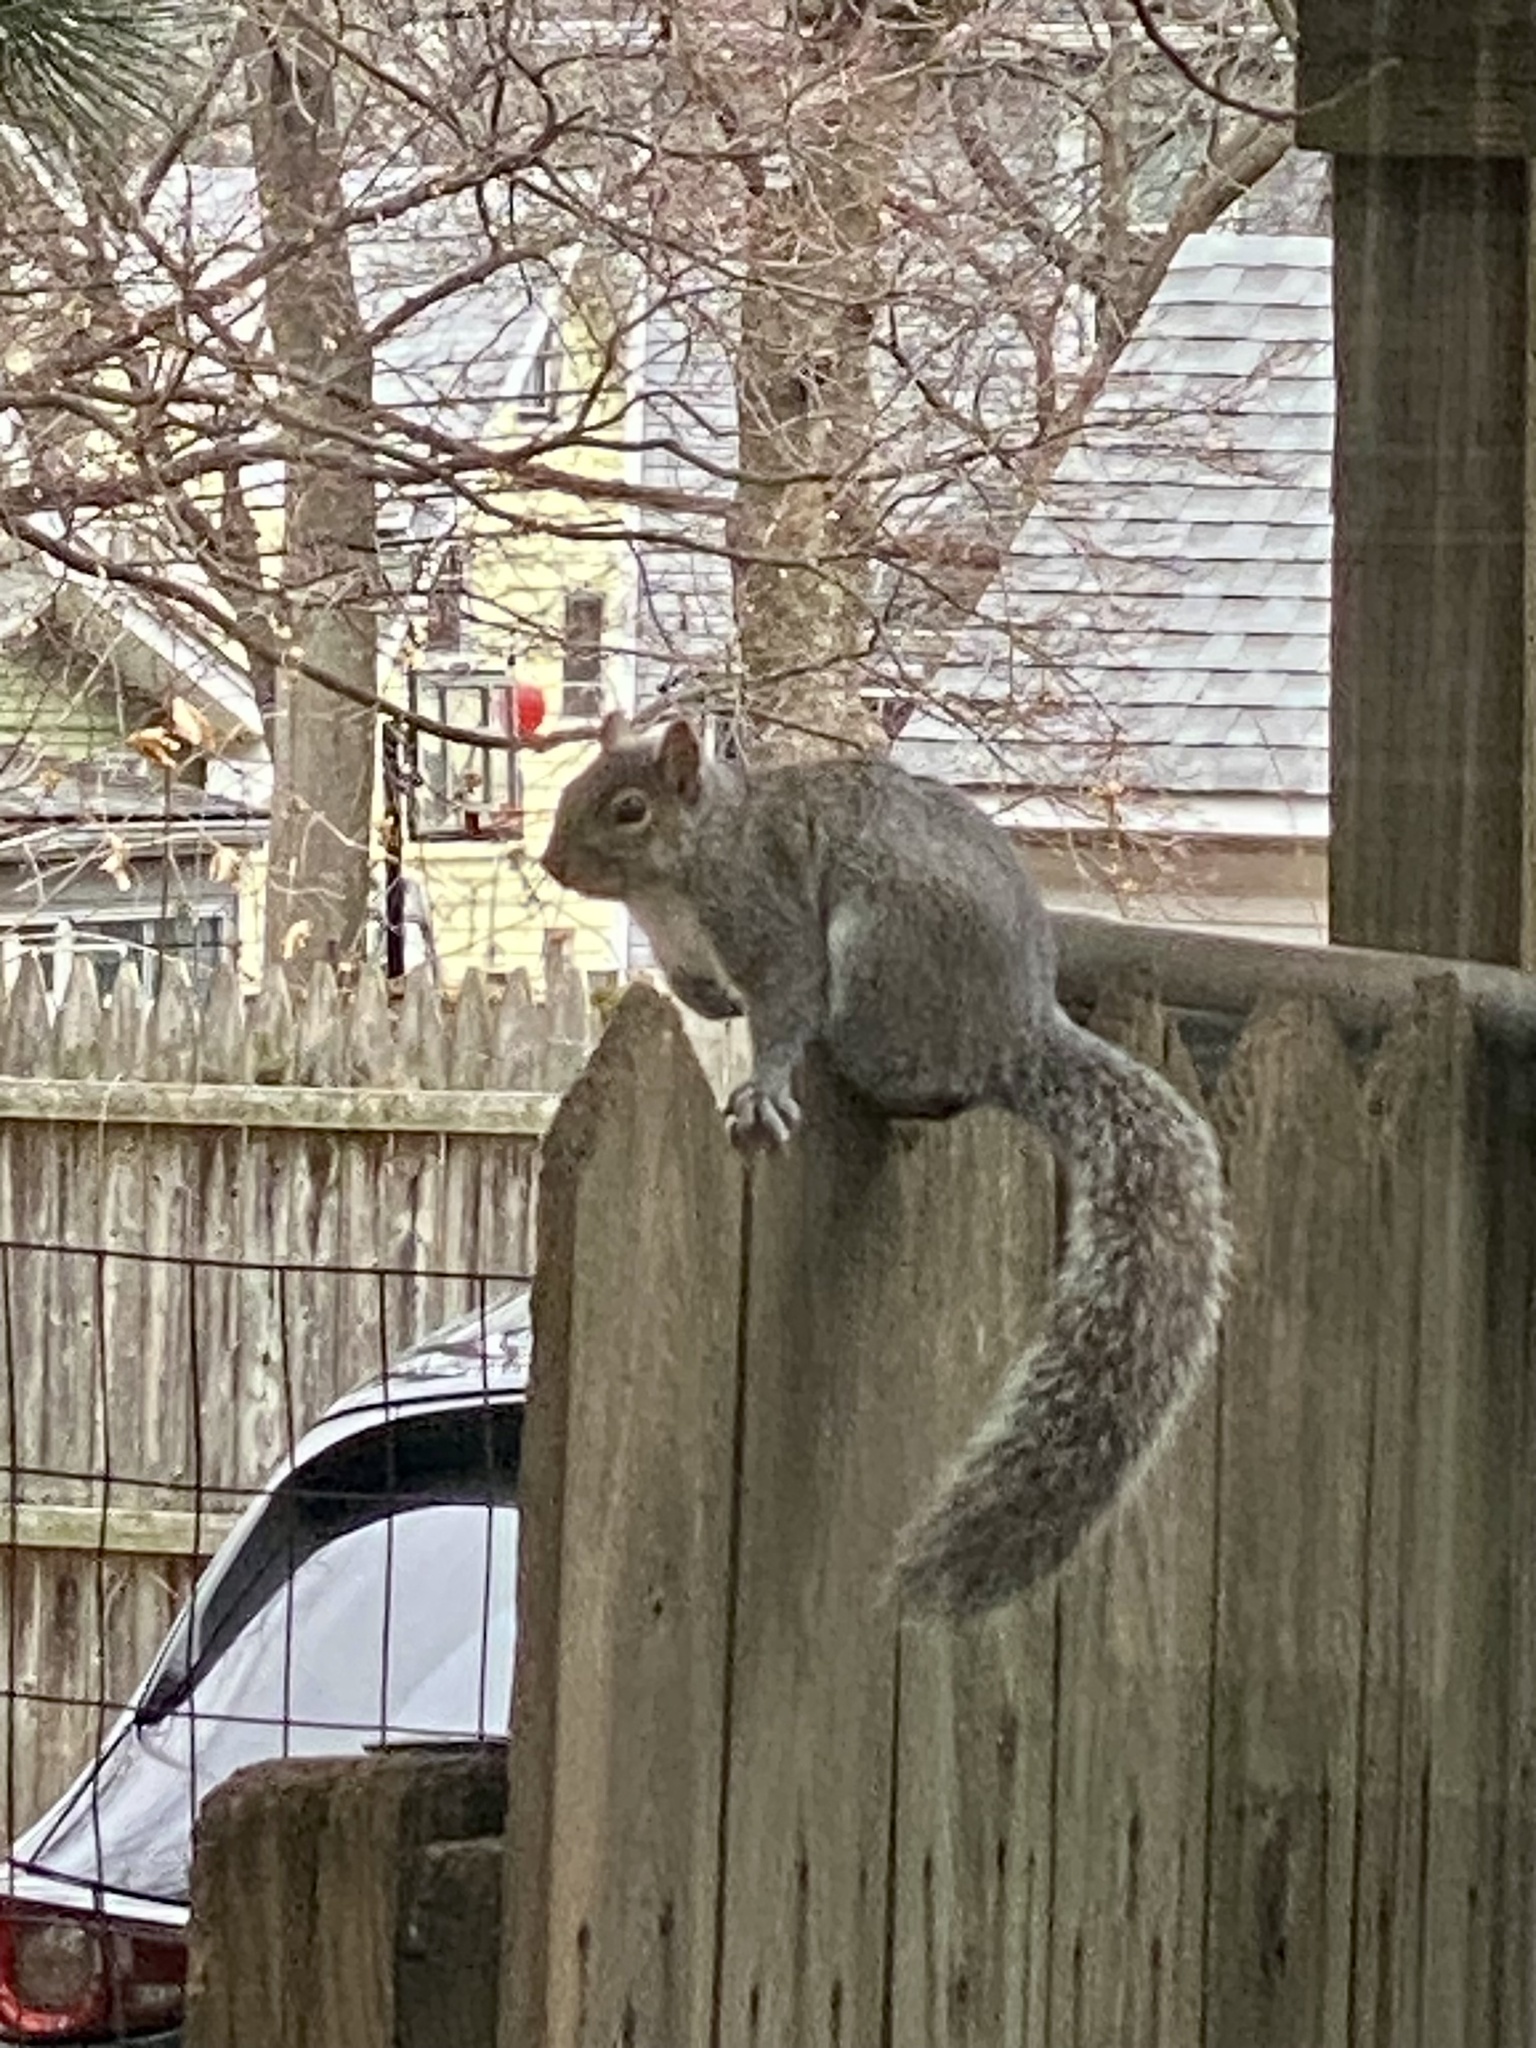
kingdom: Animalia
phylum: Chordata
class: Mammalia
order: Rodentia
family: Sciuridae
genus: Sciurus
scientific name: Sciurus carolinensis
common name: Eastern gray squirrel
